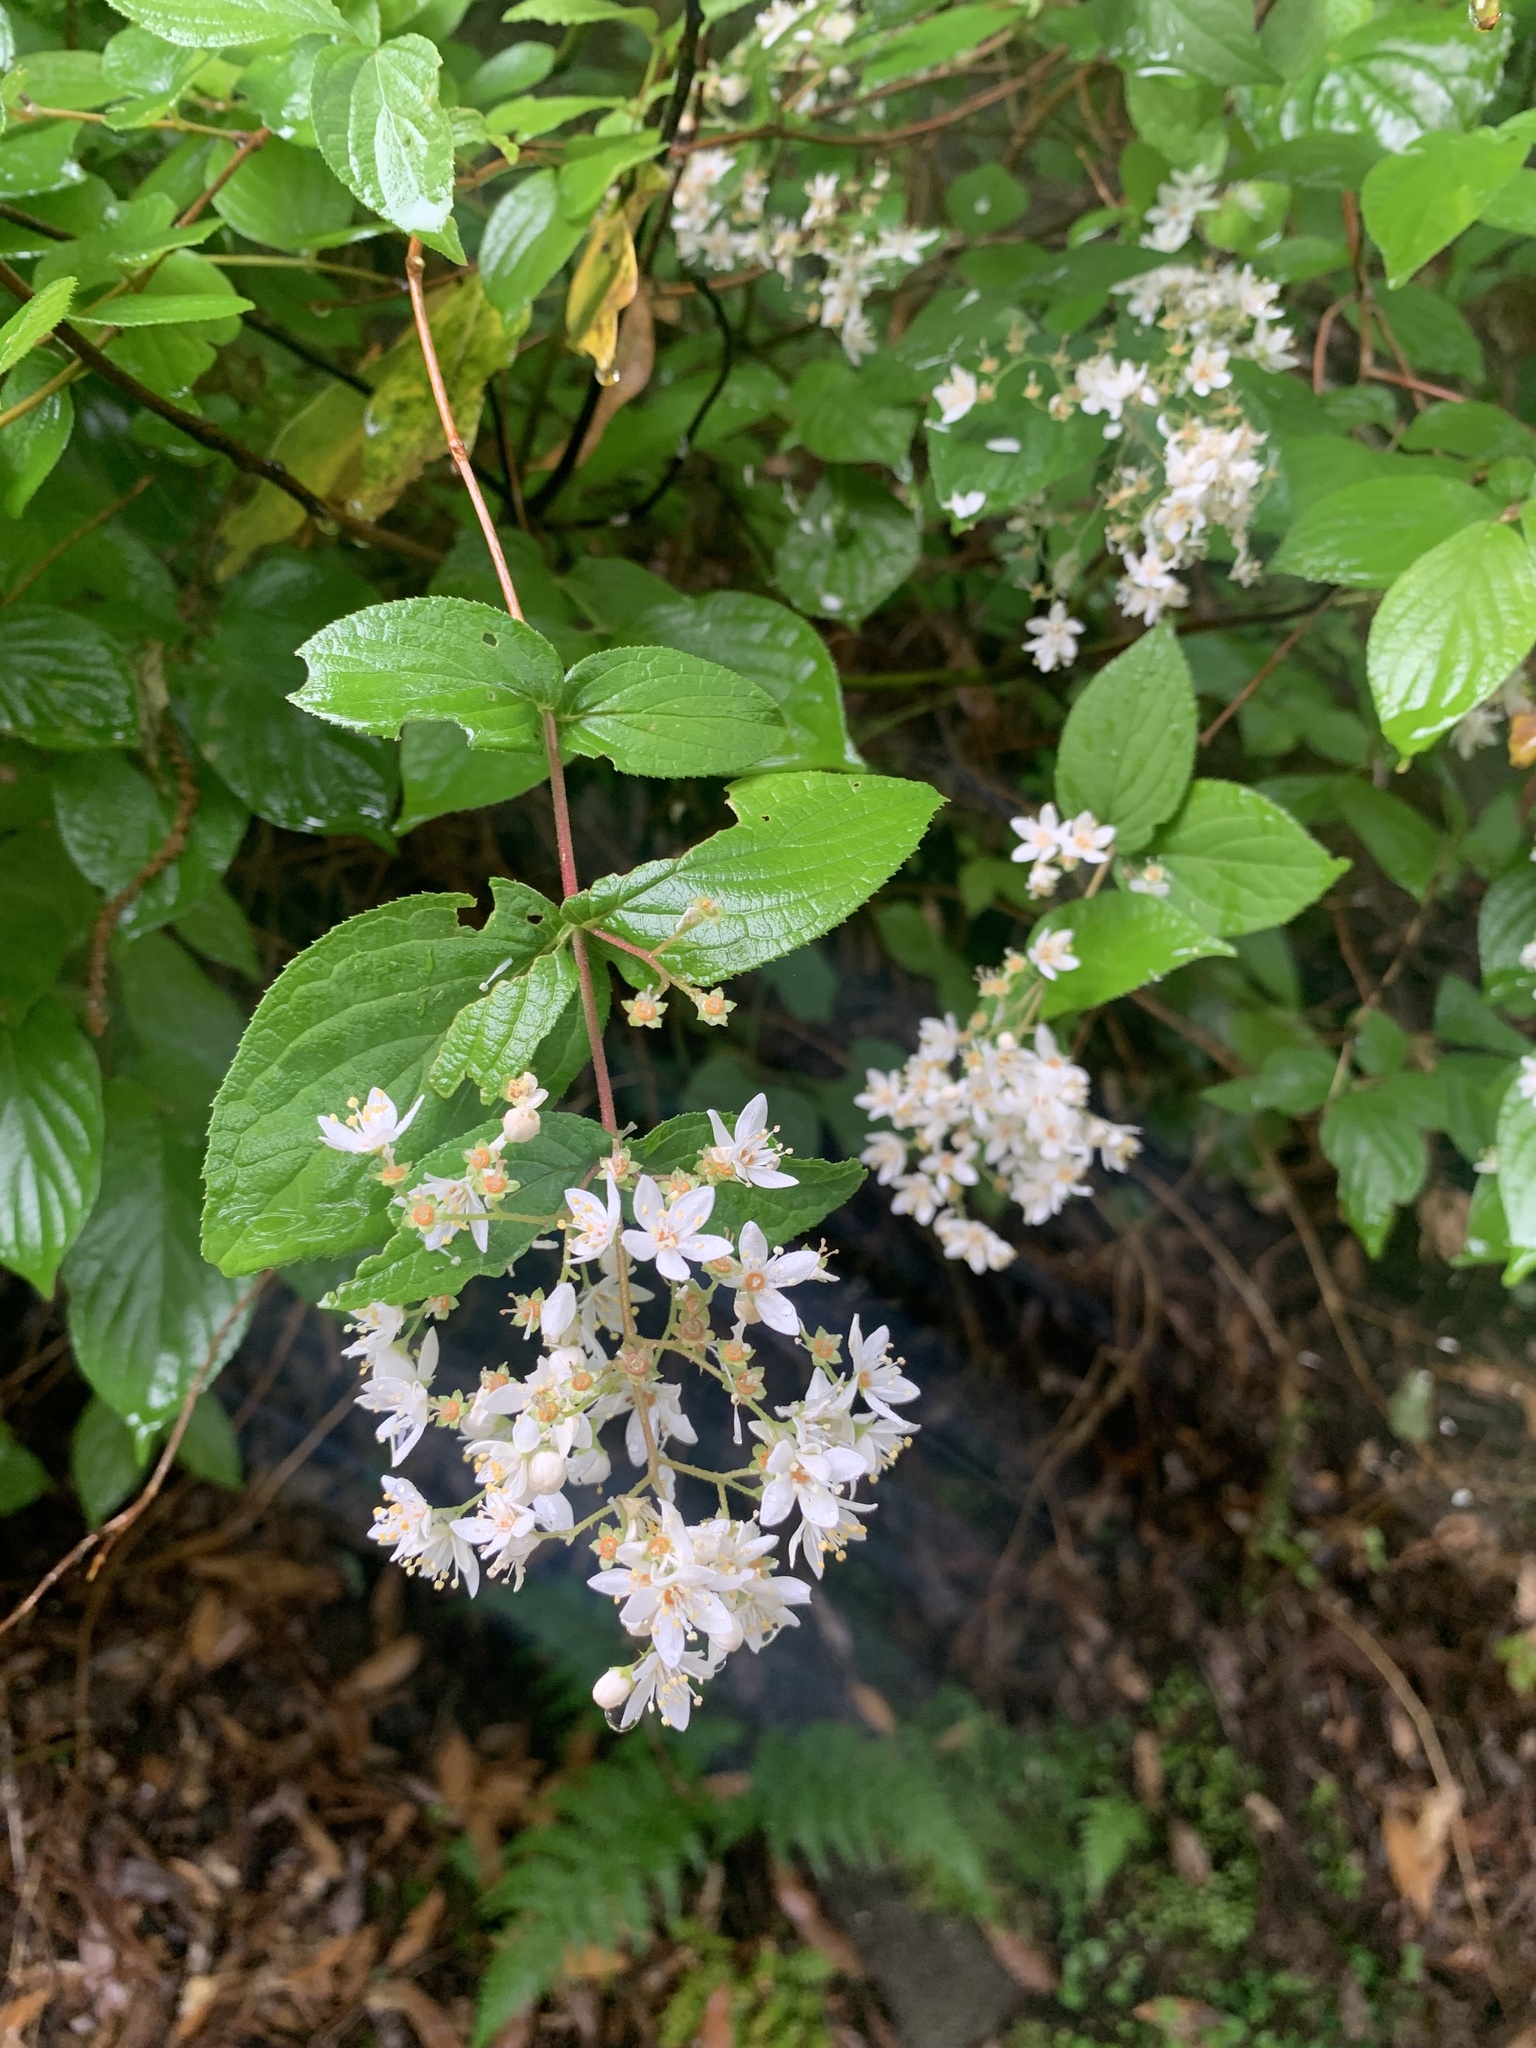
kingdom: Plantae
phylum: Tracheophyta
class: Magnoliopsida
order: Cornales
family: Hydrangeaceae
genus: Deutzia
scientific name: Deutzia scabra
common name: Deutzia
